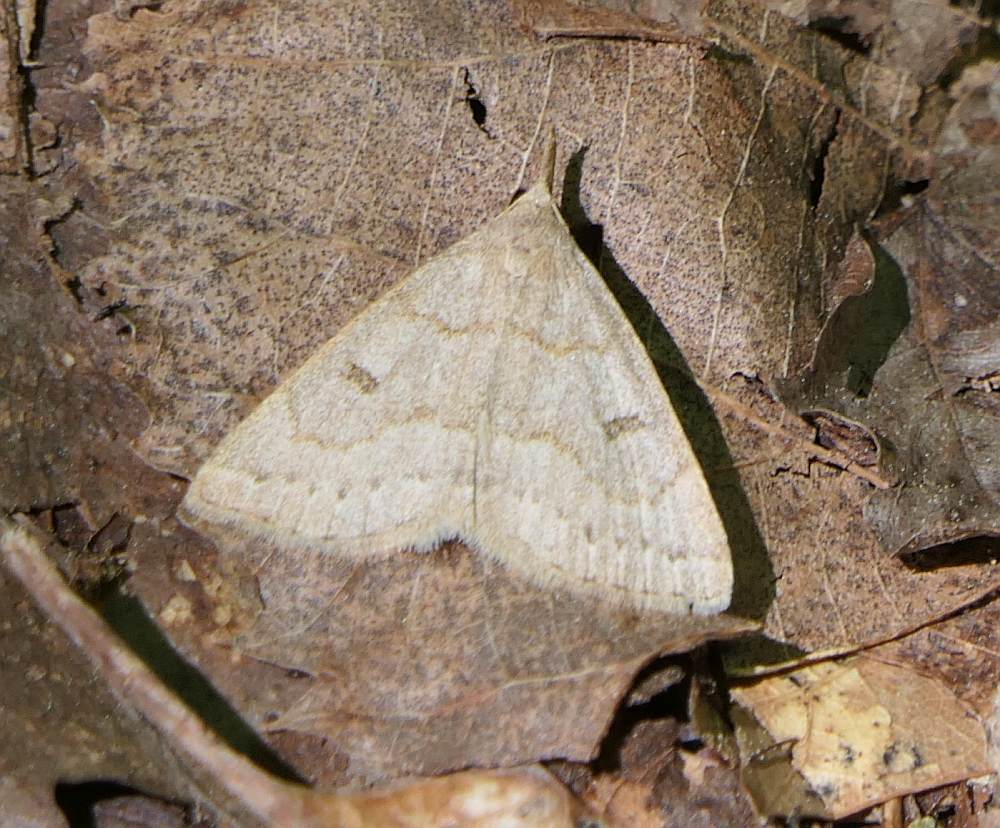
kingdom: Animalia
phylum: Arthropoda
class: Insecta
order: Lepidoptera
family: Erebidae
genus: Macrochilo
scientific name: Macrochilo morbidalis
